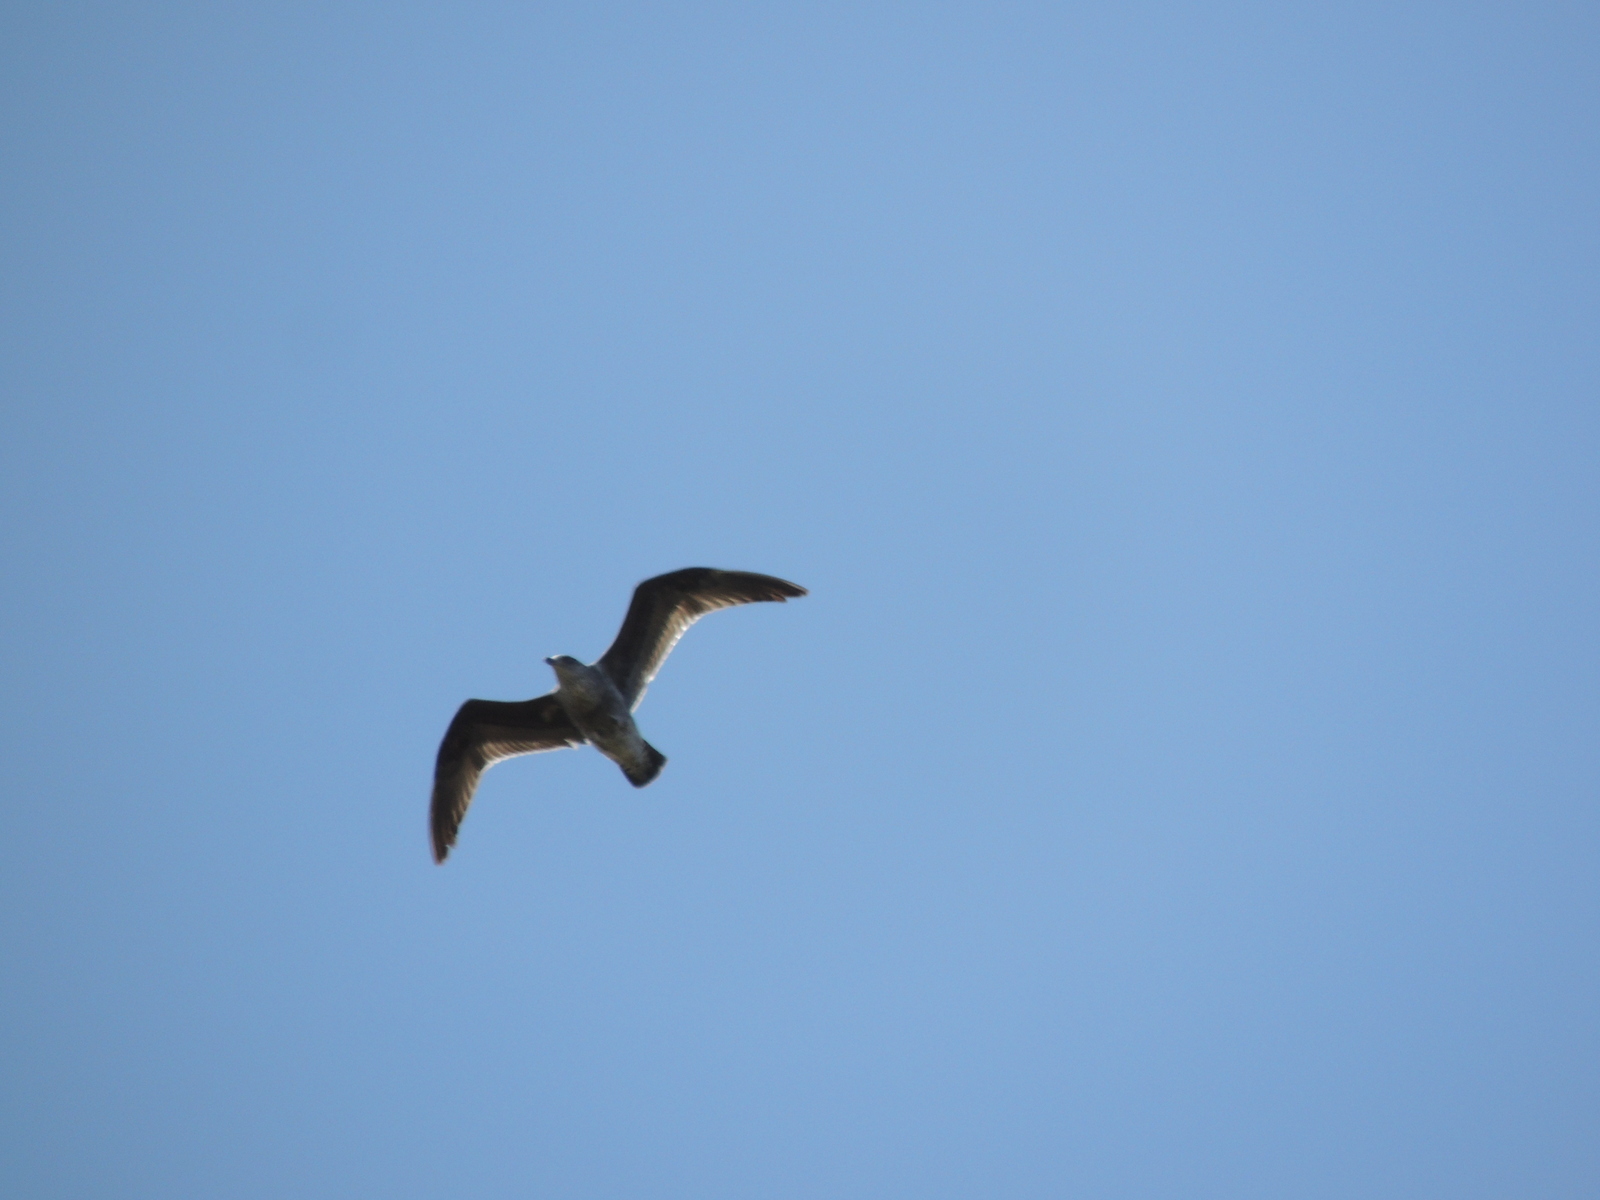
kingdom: Animalia
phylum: Chordata
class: Aves
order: Charadriiformes
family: Laridae
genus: Larus
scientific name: Larus dominicanus
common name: Kelp gull
